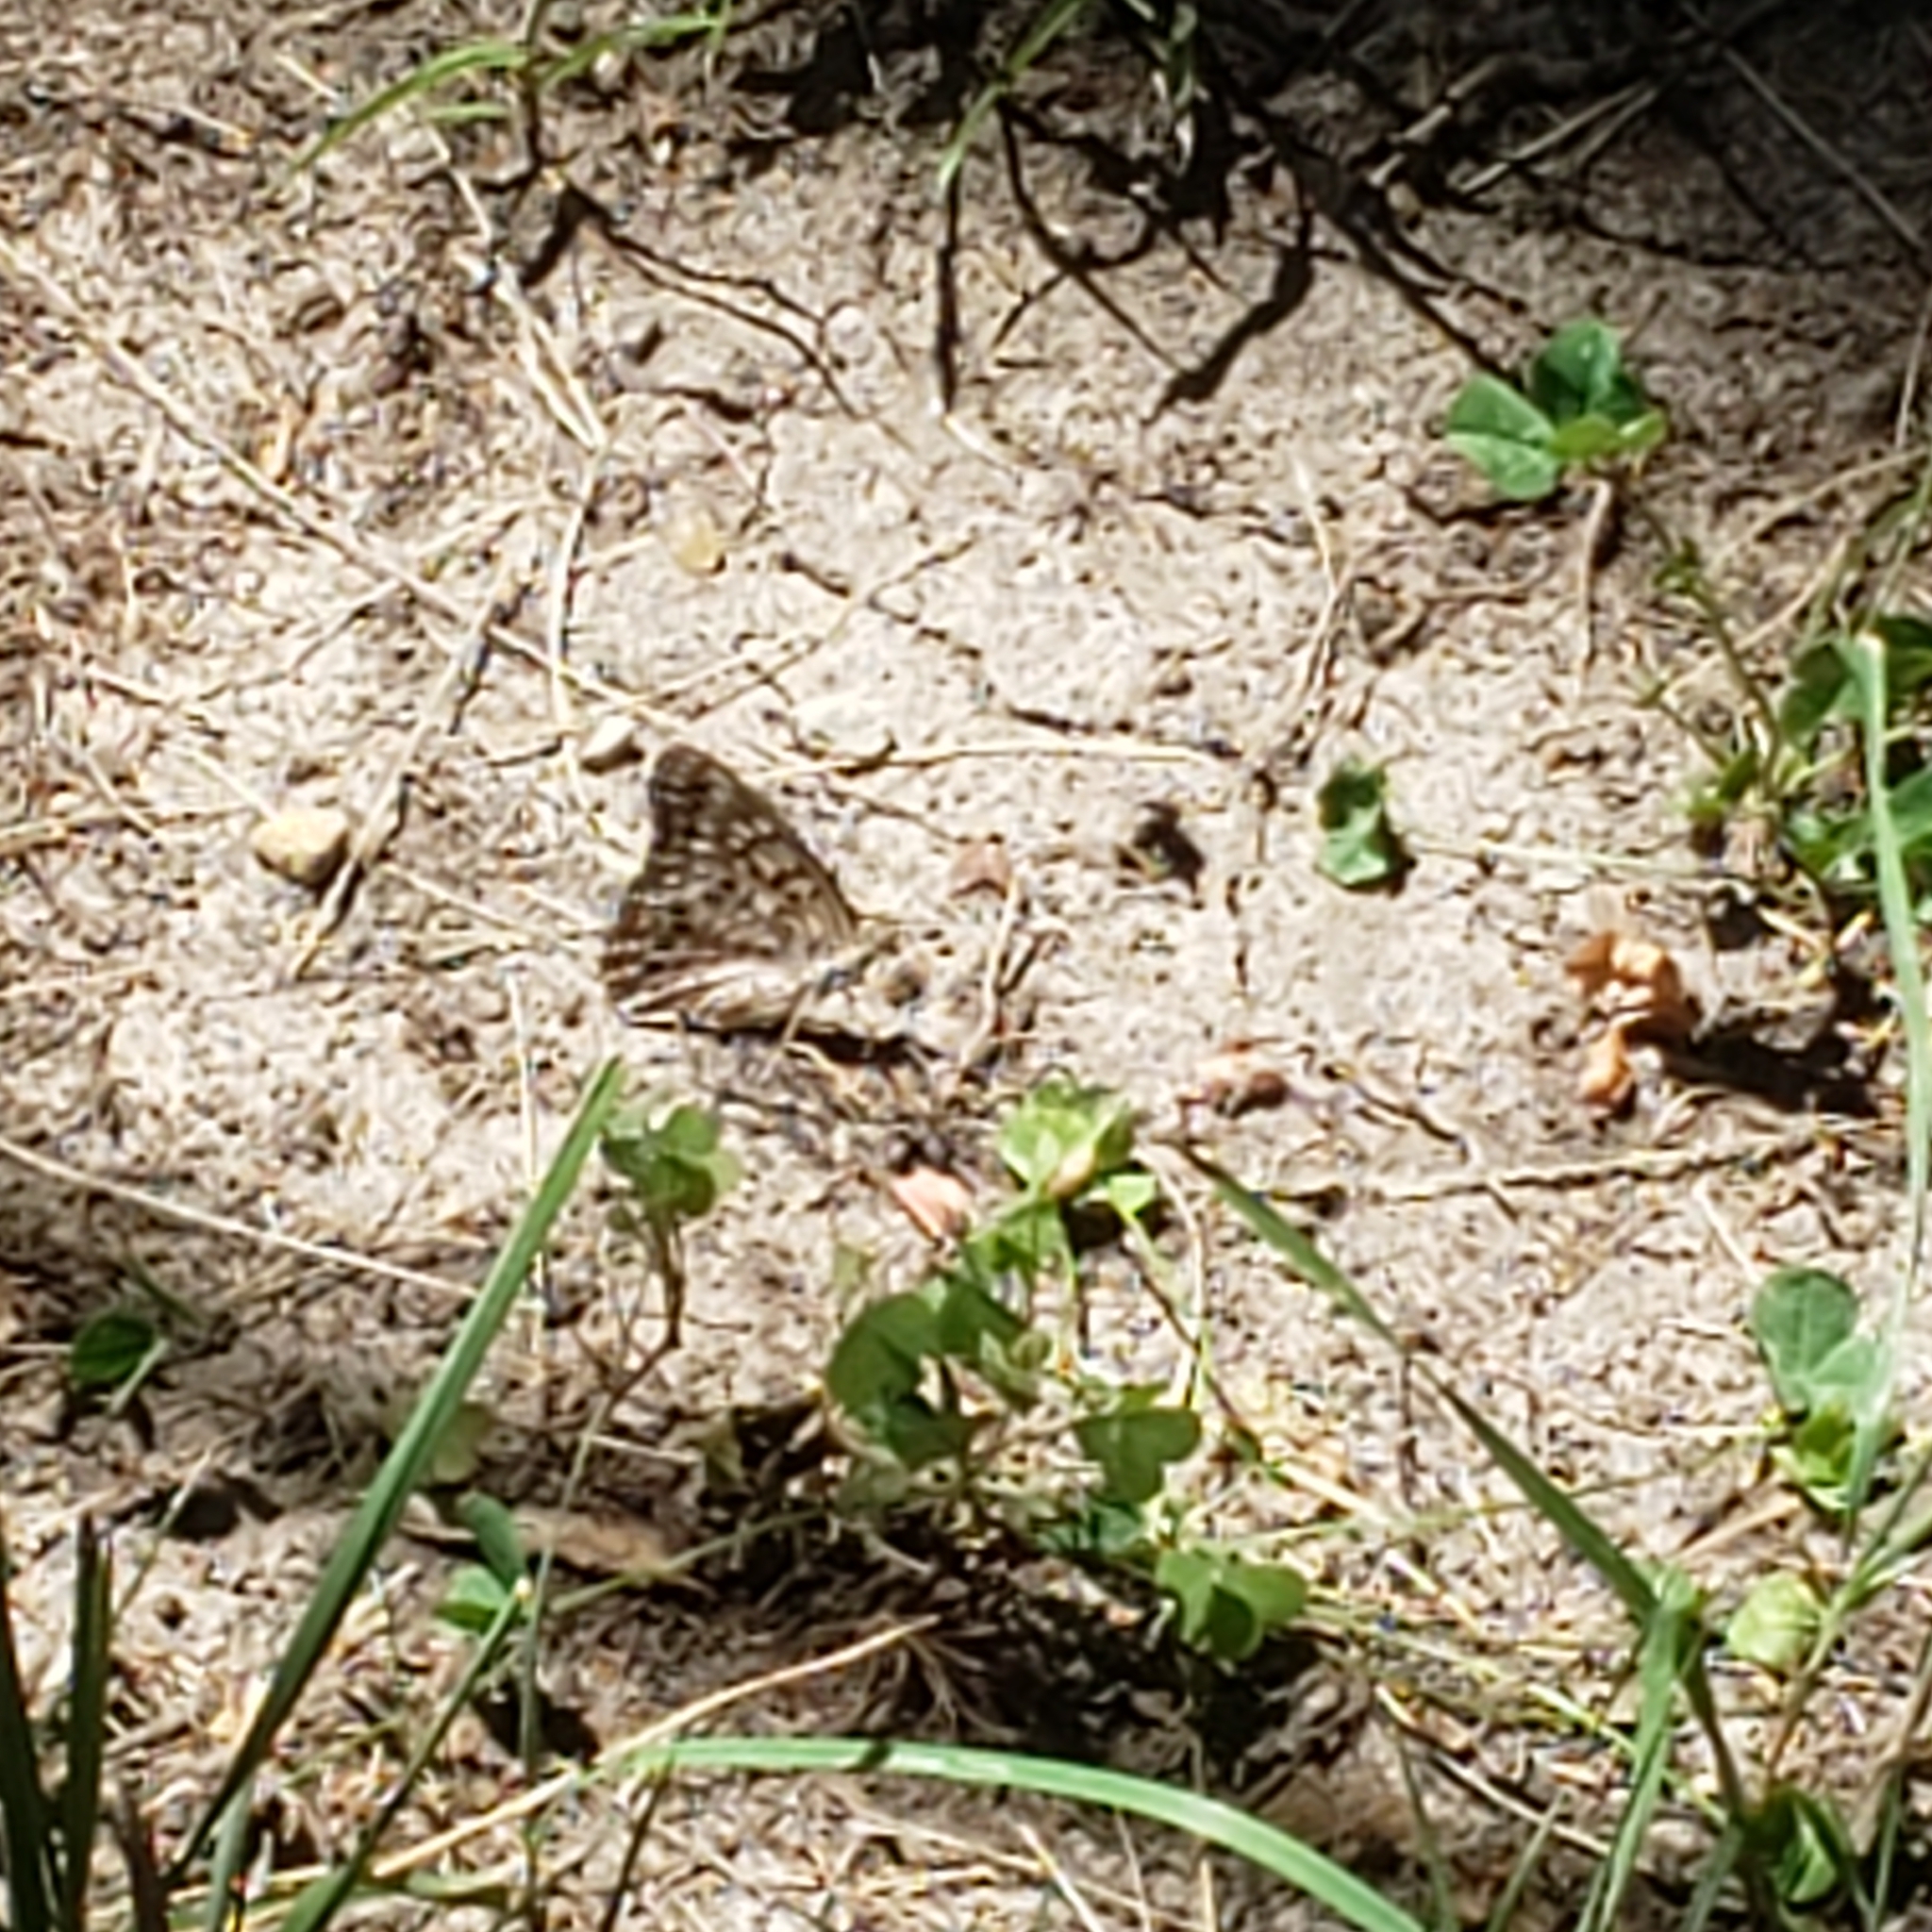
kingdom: Animalia
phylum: Arthropoda
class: Insecta
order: Lepidoptera
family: Nymphalidae
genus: Asterocampa
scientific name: Asterocampa celtis
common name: Hackberry emperor
